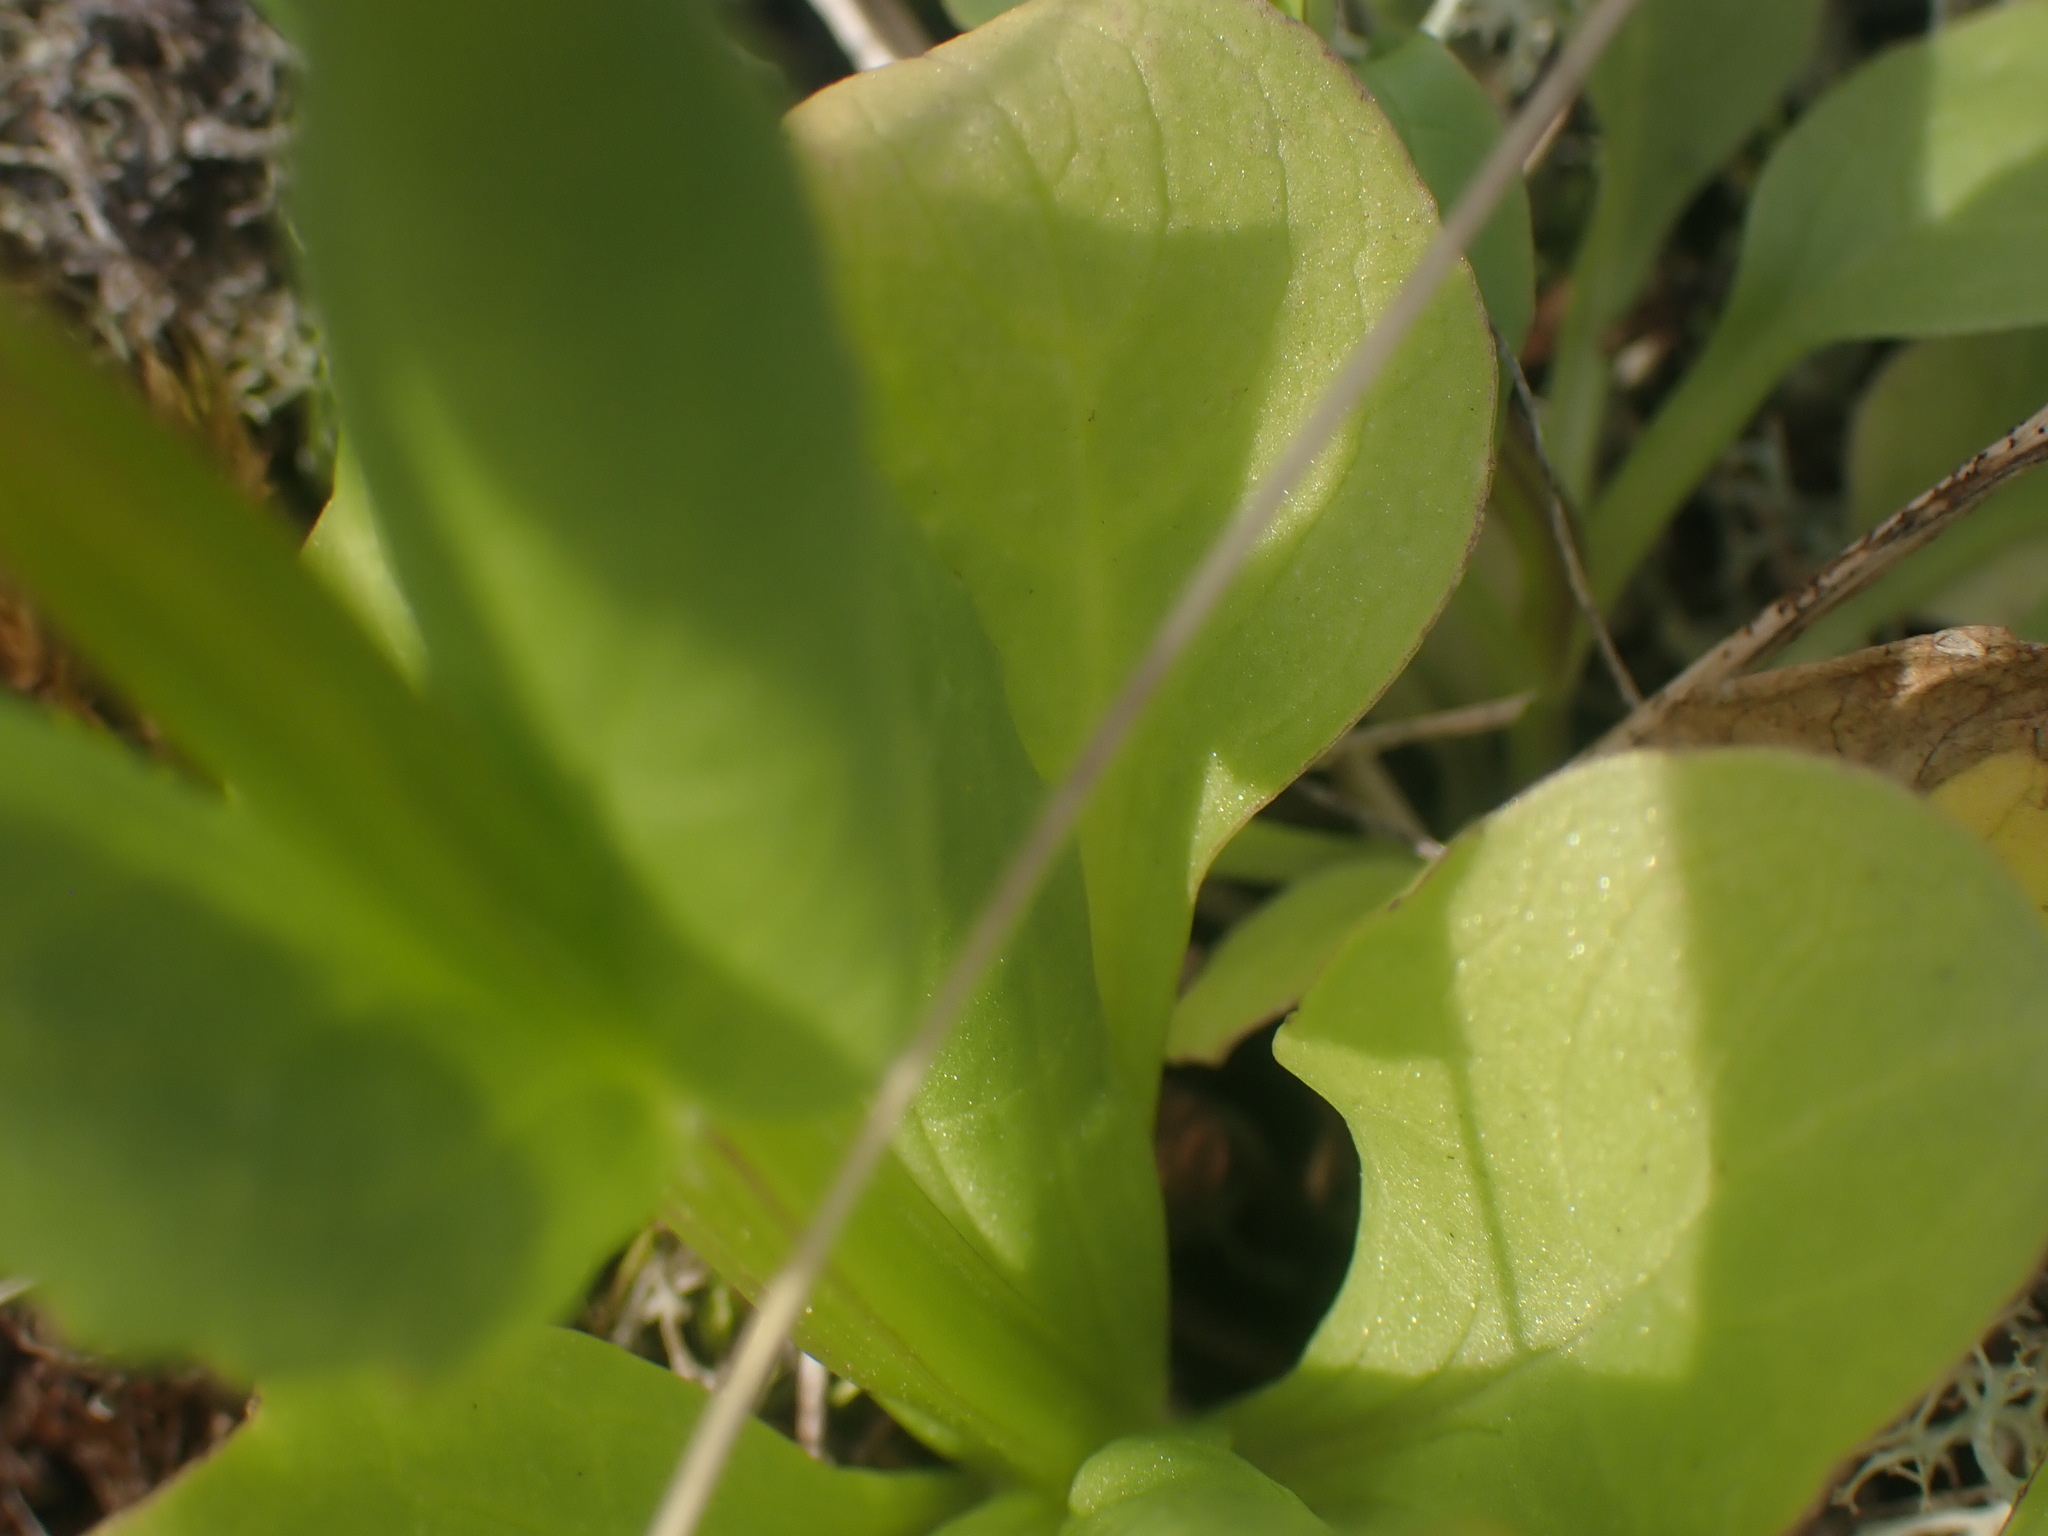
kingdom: Plantae
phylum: Tracheophyta
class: Magnoliopsida
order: Dipsacales
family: Caprifoliaceae
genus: Plectritis
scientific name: Plectritis congesta
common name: Pink plectritis
